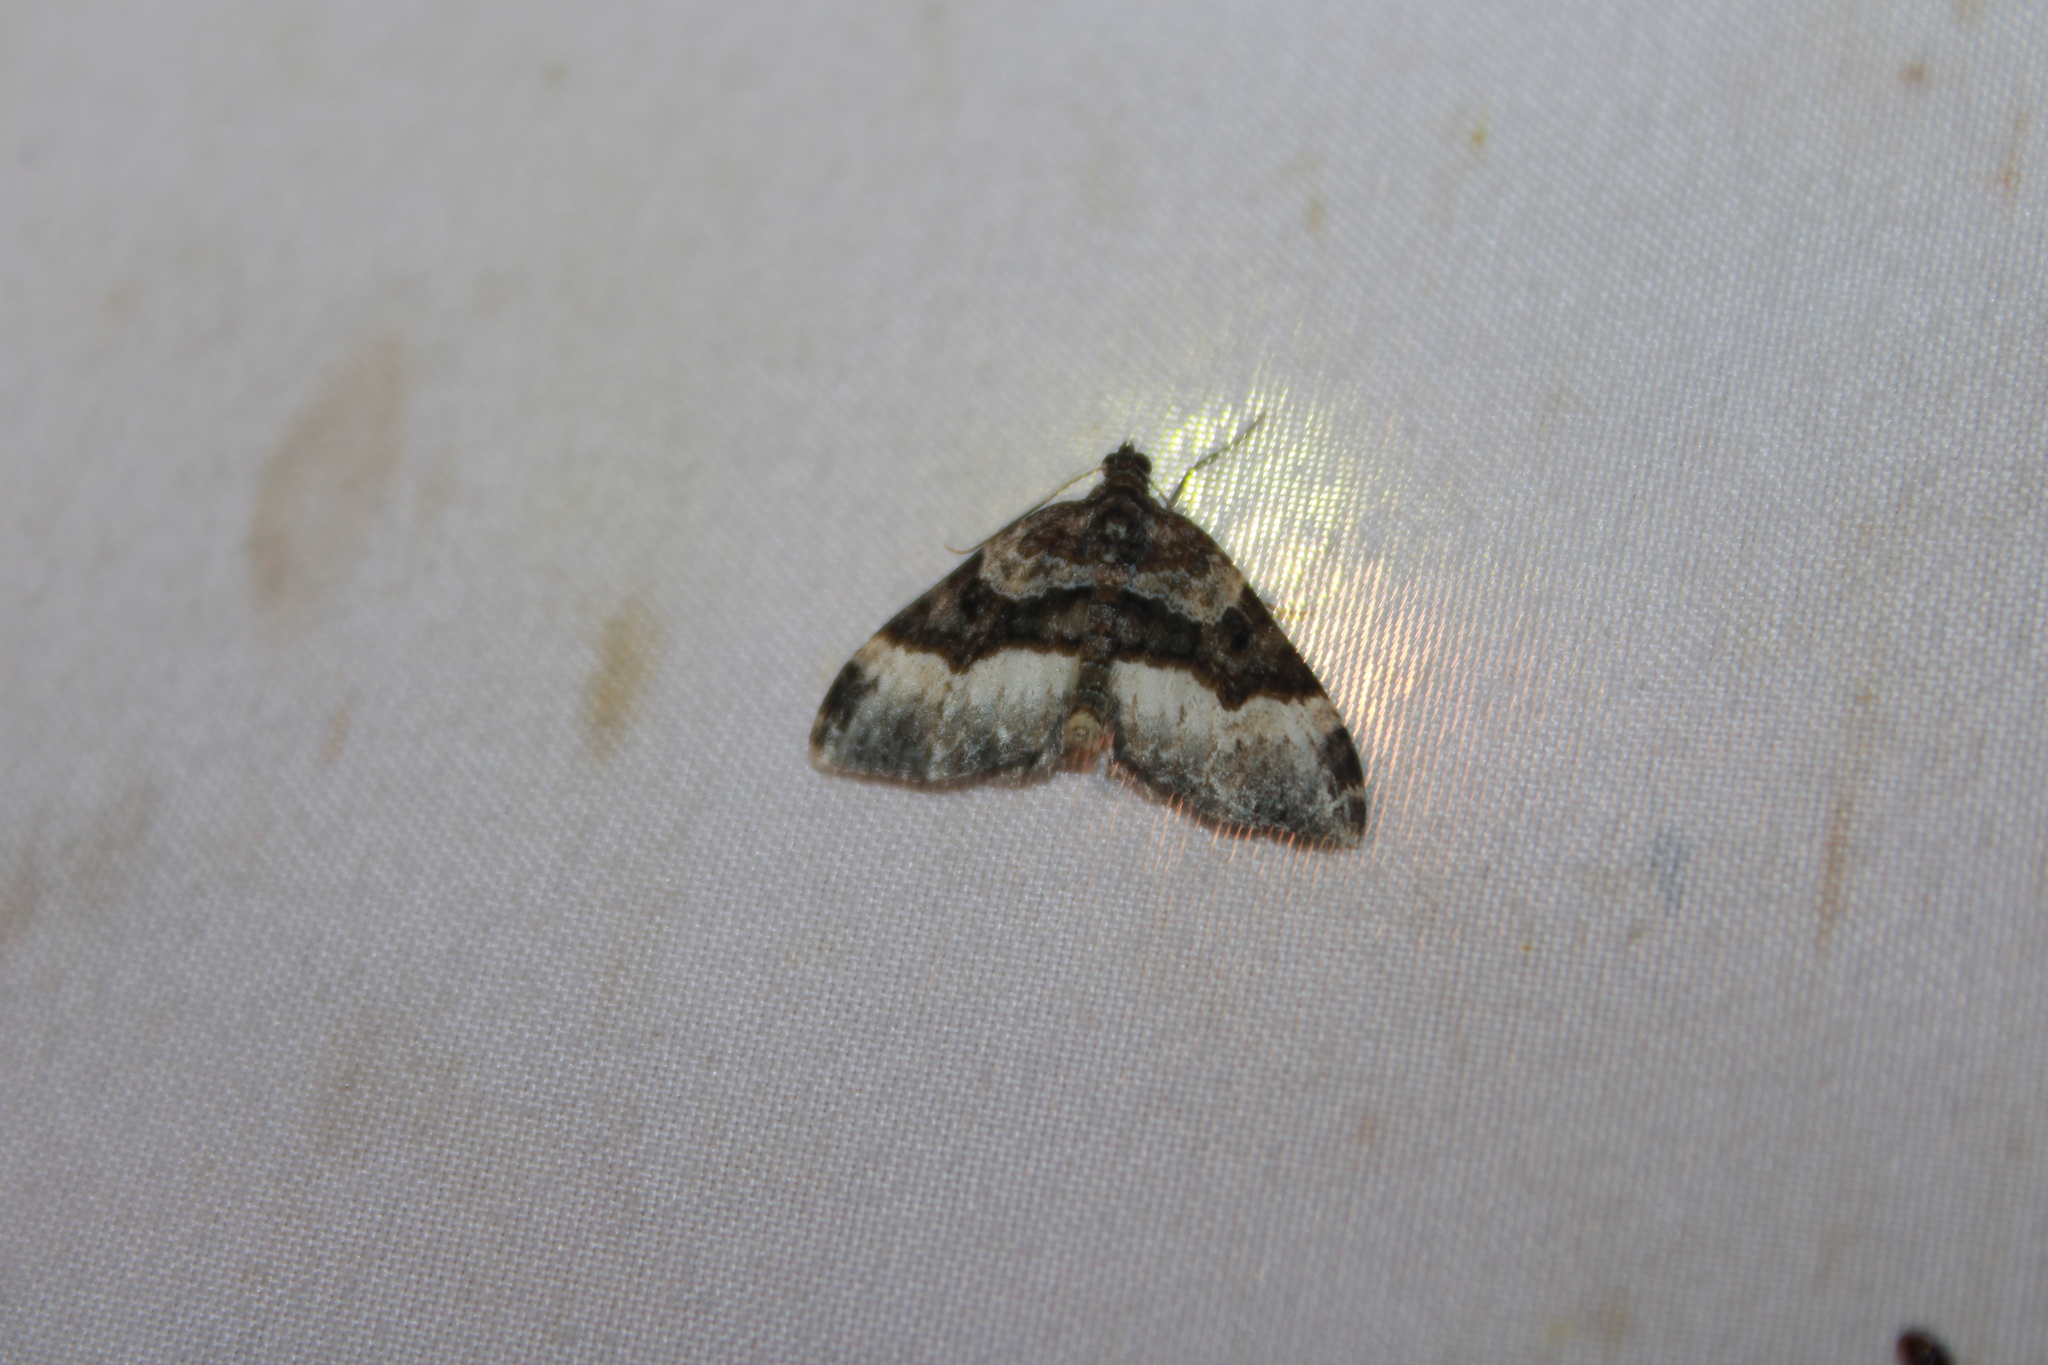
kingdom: Animalia
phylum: Arthropoda
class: Insecta
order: Lepidoptera
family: Geometridae
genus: Euphyia
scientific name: Euphyia intermediata
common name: Sharp-angled carpet
